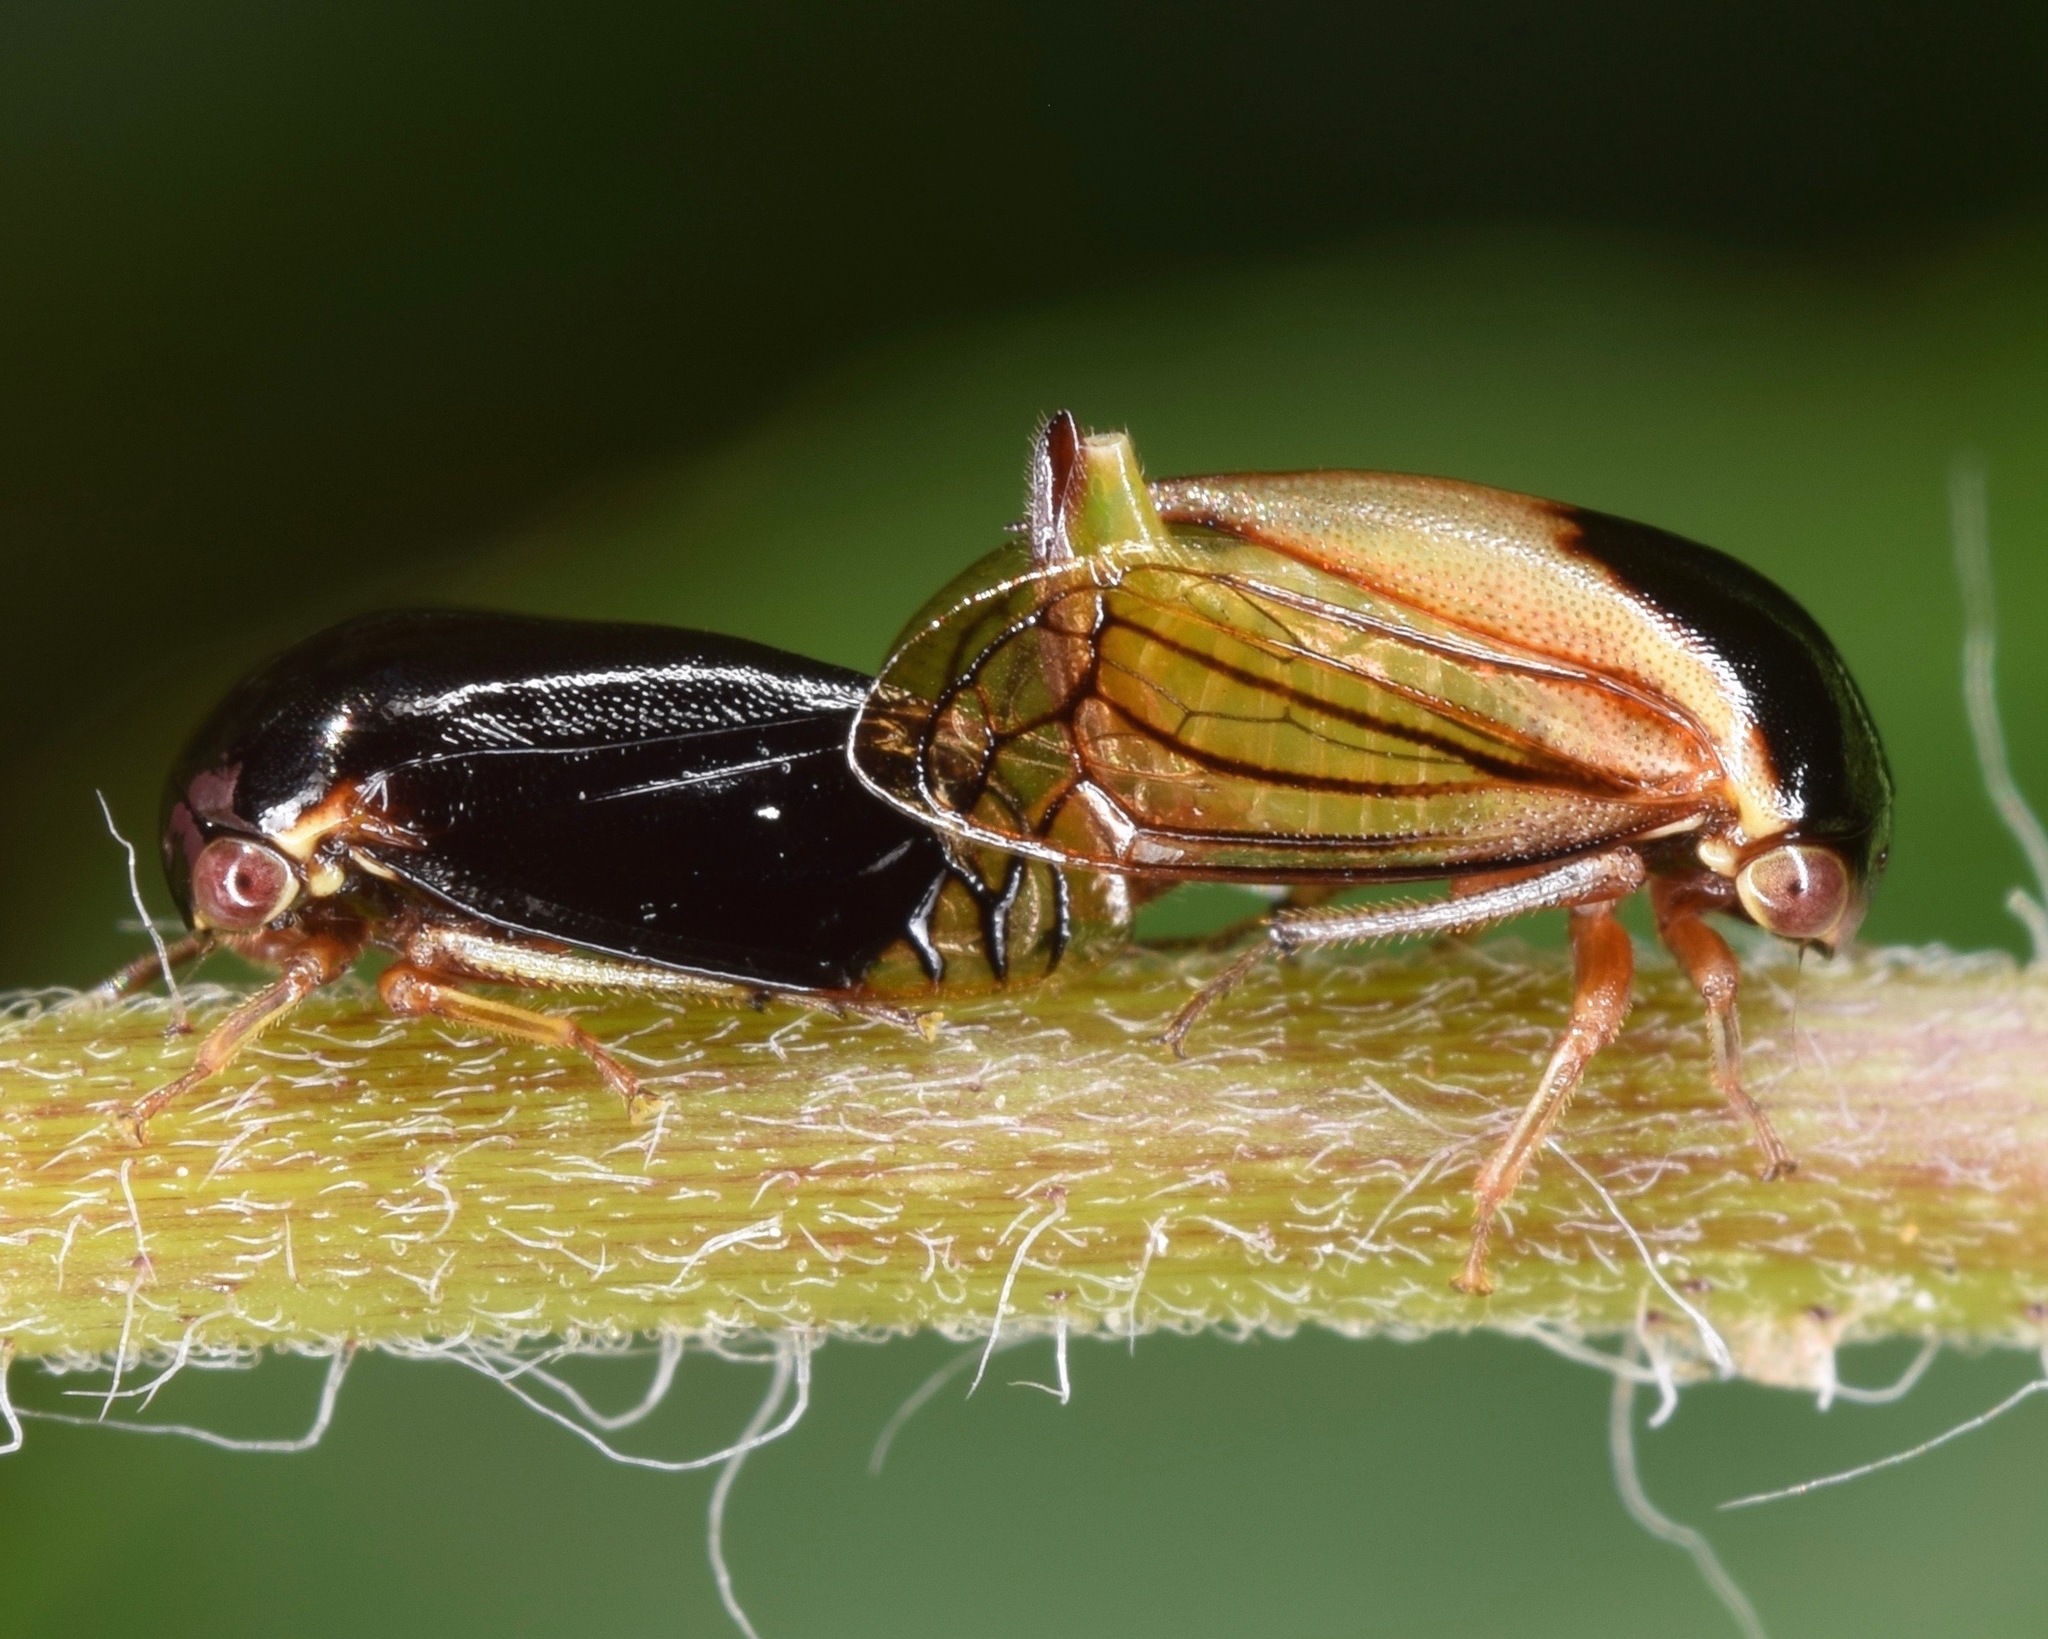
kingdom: Animalia
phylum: Arthropoda
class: Insecta
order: Hemiptera
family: Membracidae
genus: Acutalis
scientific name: Acutalis tartarea
